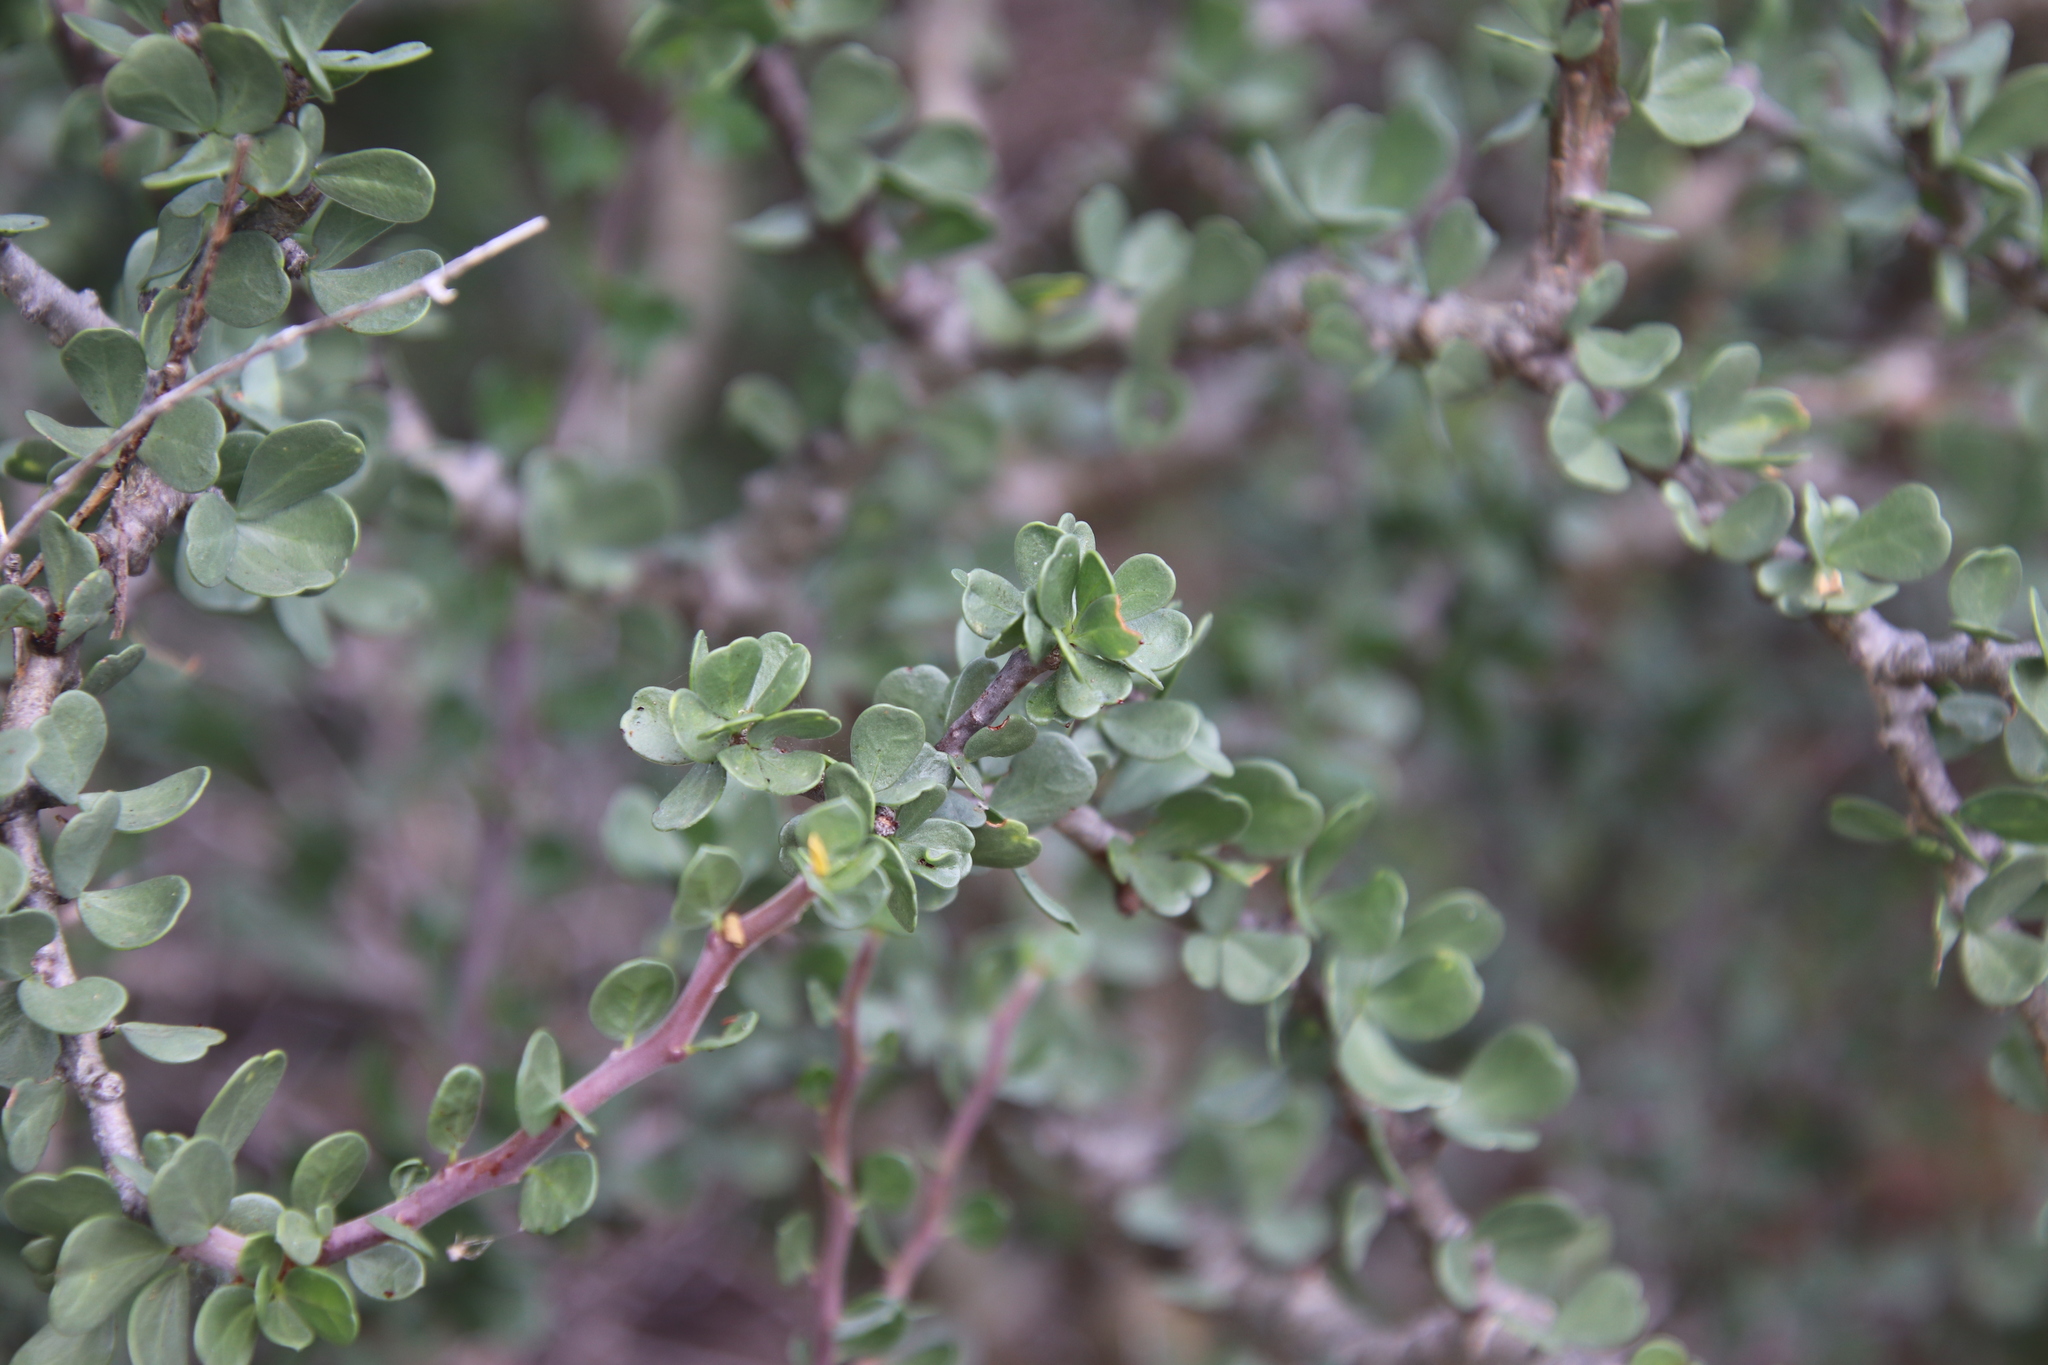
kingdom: Plantae
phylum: Tracheophyta
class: Magnoliopsida
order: Malpighiales
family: Euphorbiaceae
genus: Jatropha
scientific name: Jatropha cuneata
